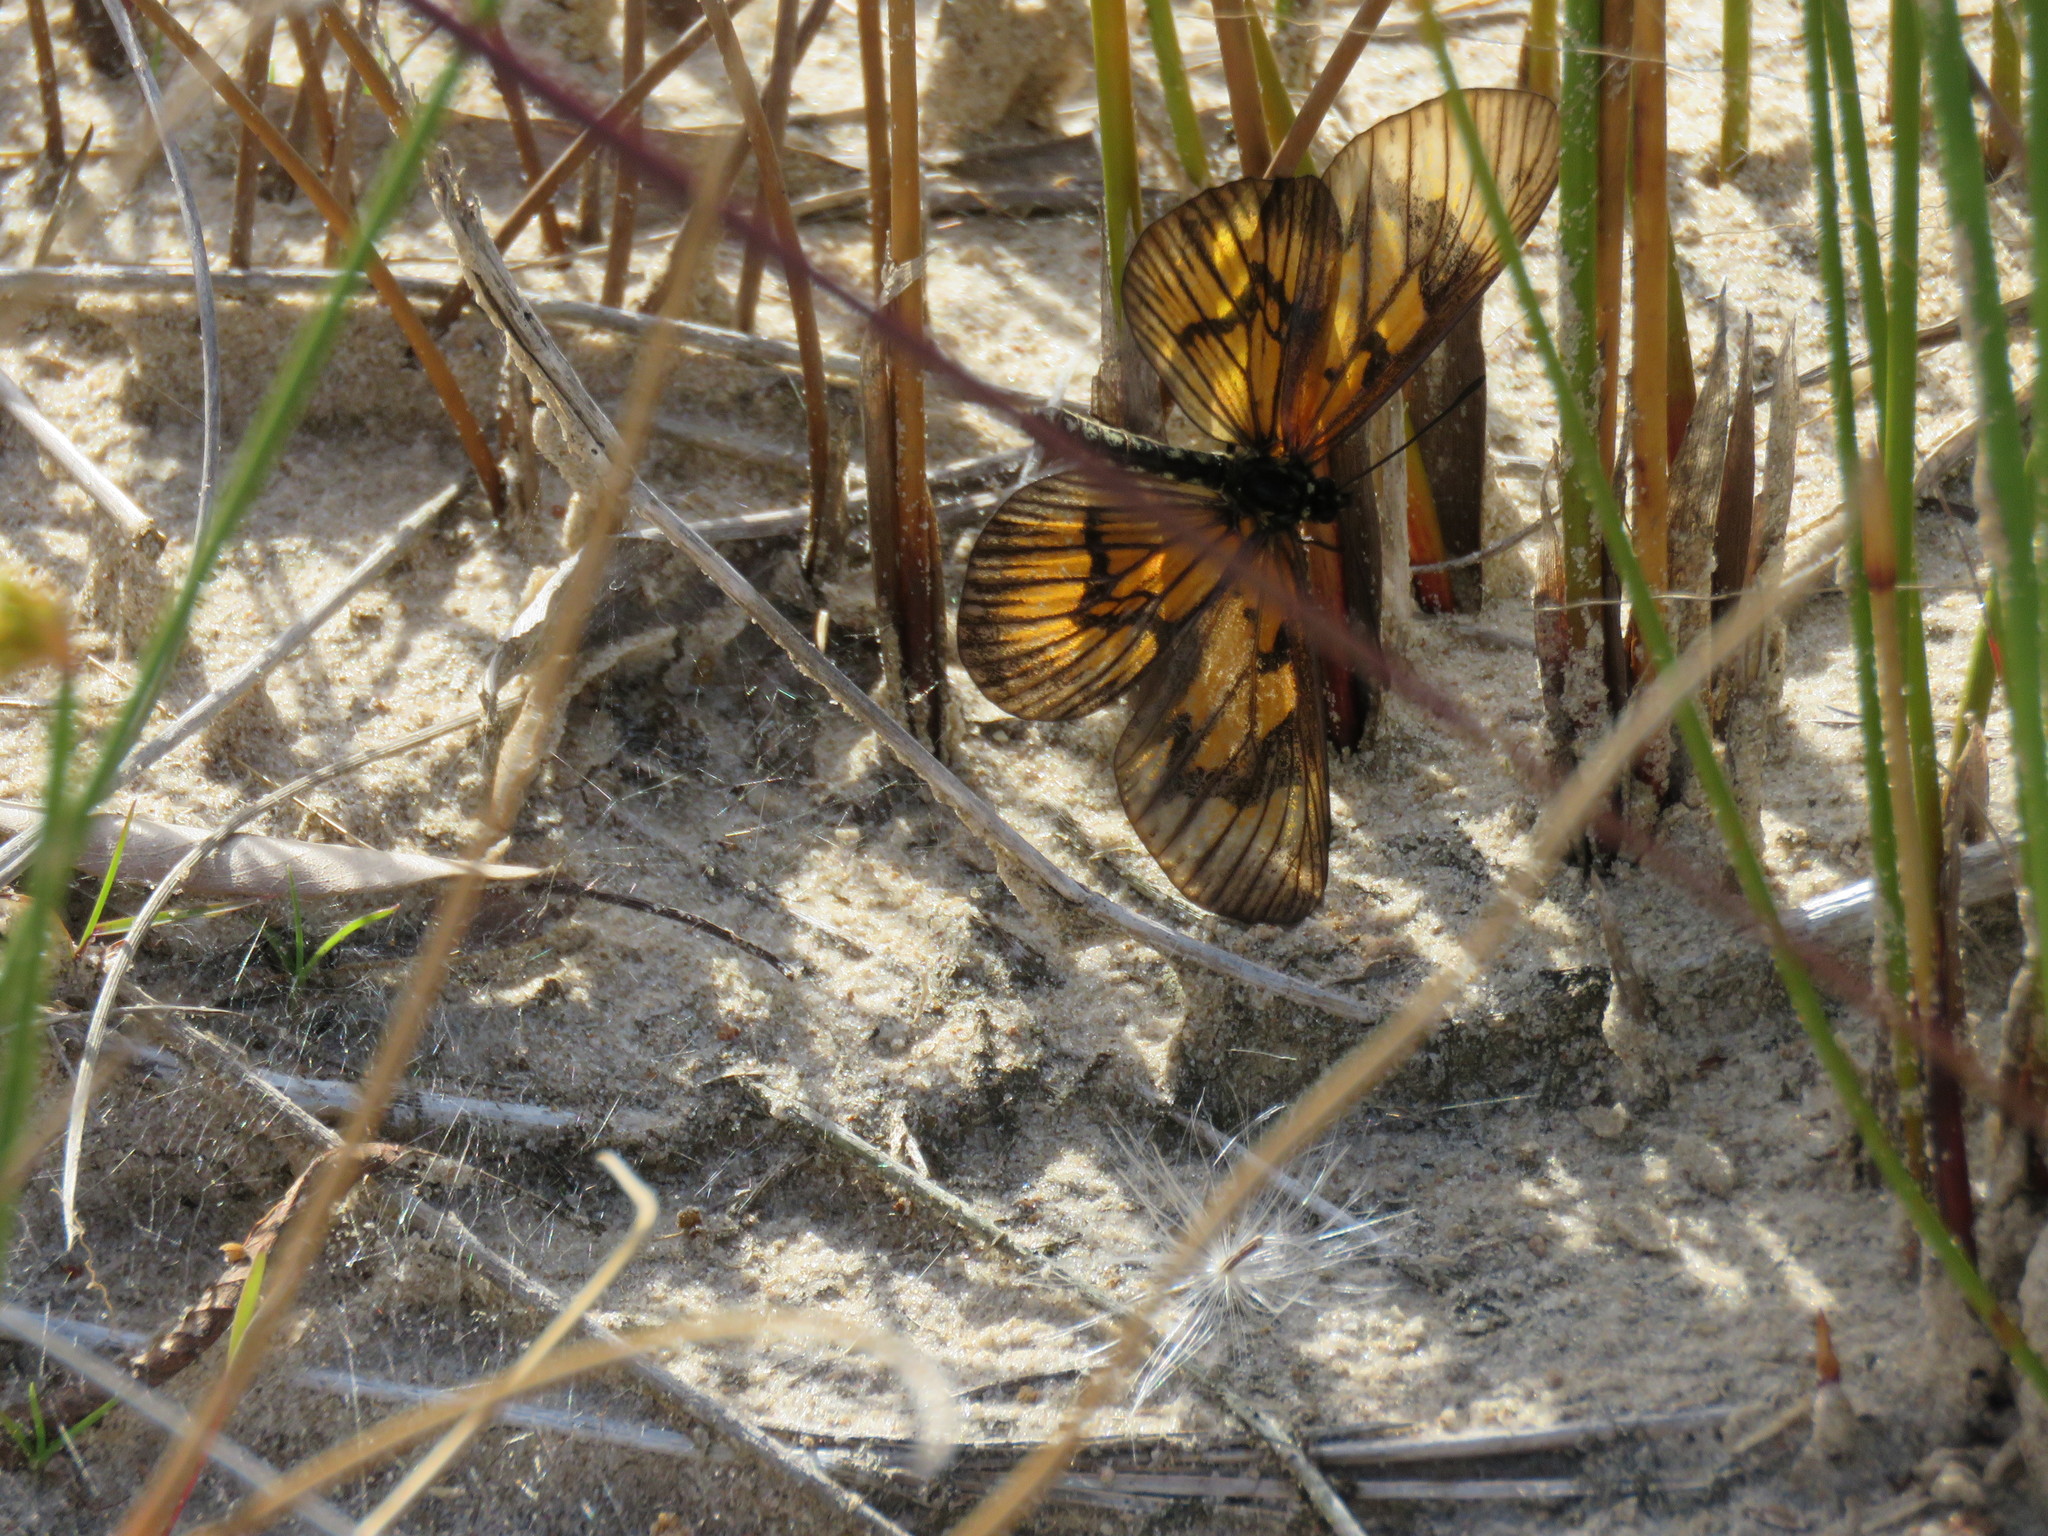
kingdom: Animalia
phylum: Arthropoda
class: Insecta
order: Lepidoptera
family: Nymphalidae
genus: Acraea
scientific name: Acraea momina
